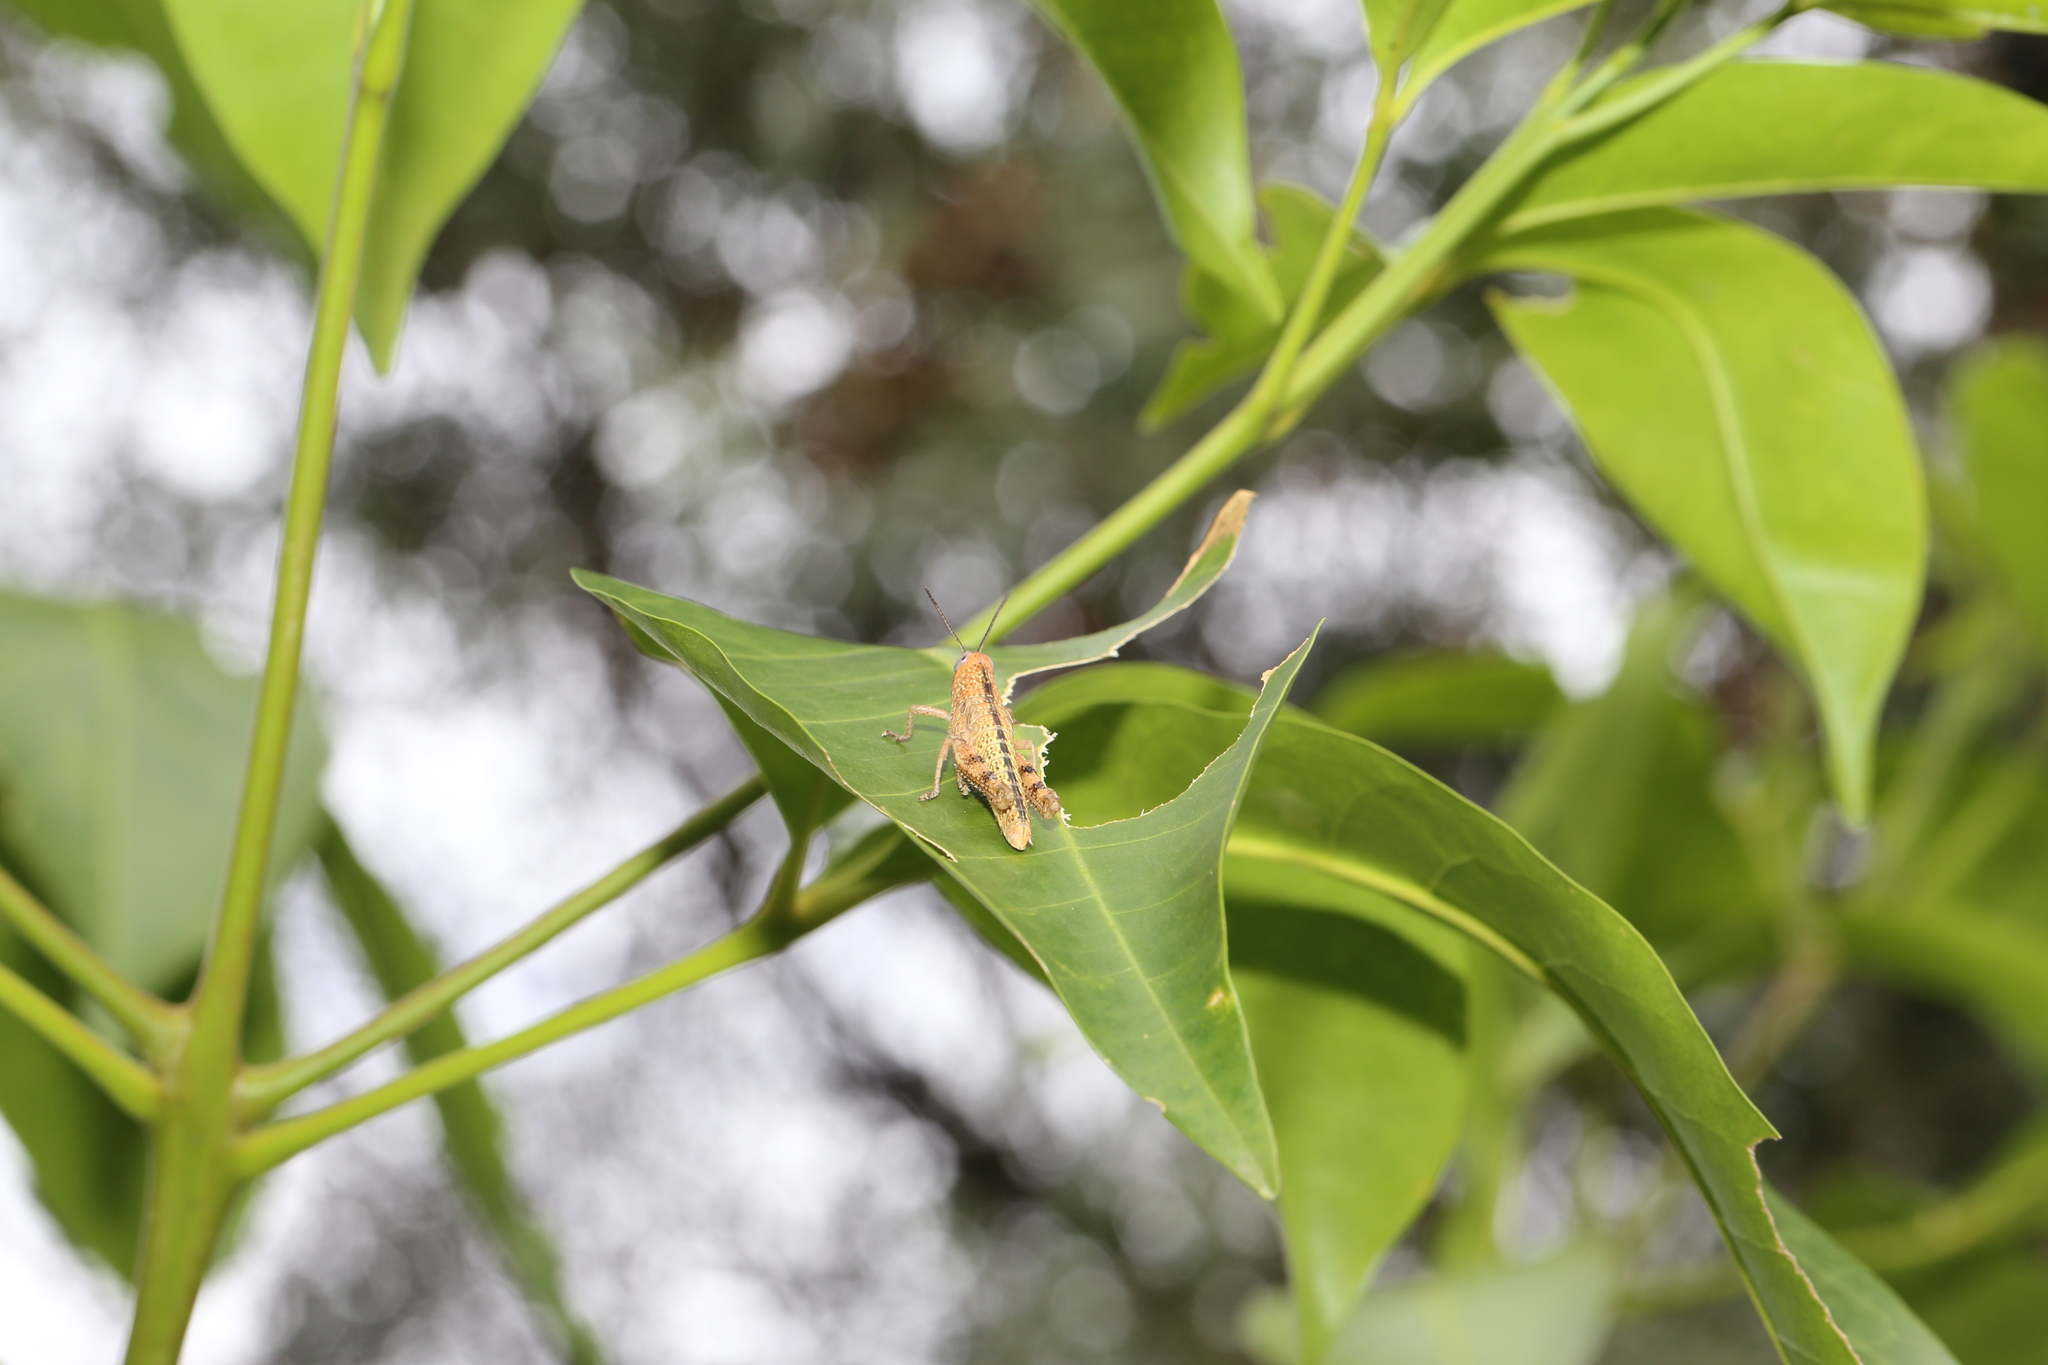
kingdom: Animalia
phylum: Arthropoda
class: Insecta
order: Orthoptera
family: Acrididae
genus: Valanga
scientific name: Valanga irregularis
